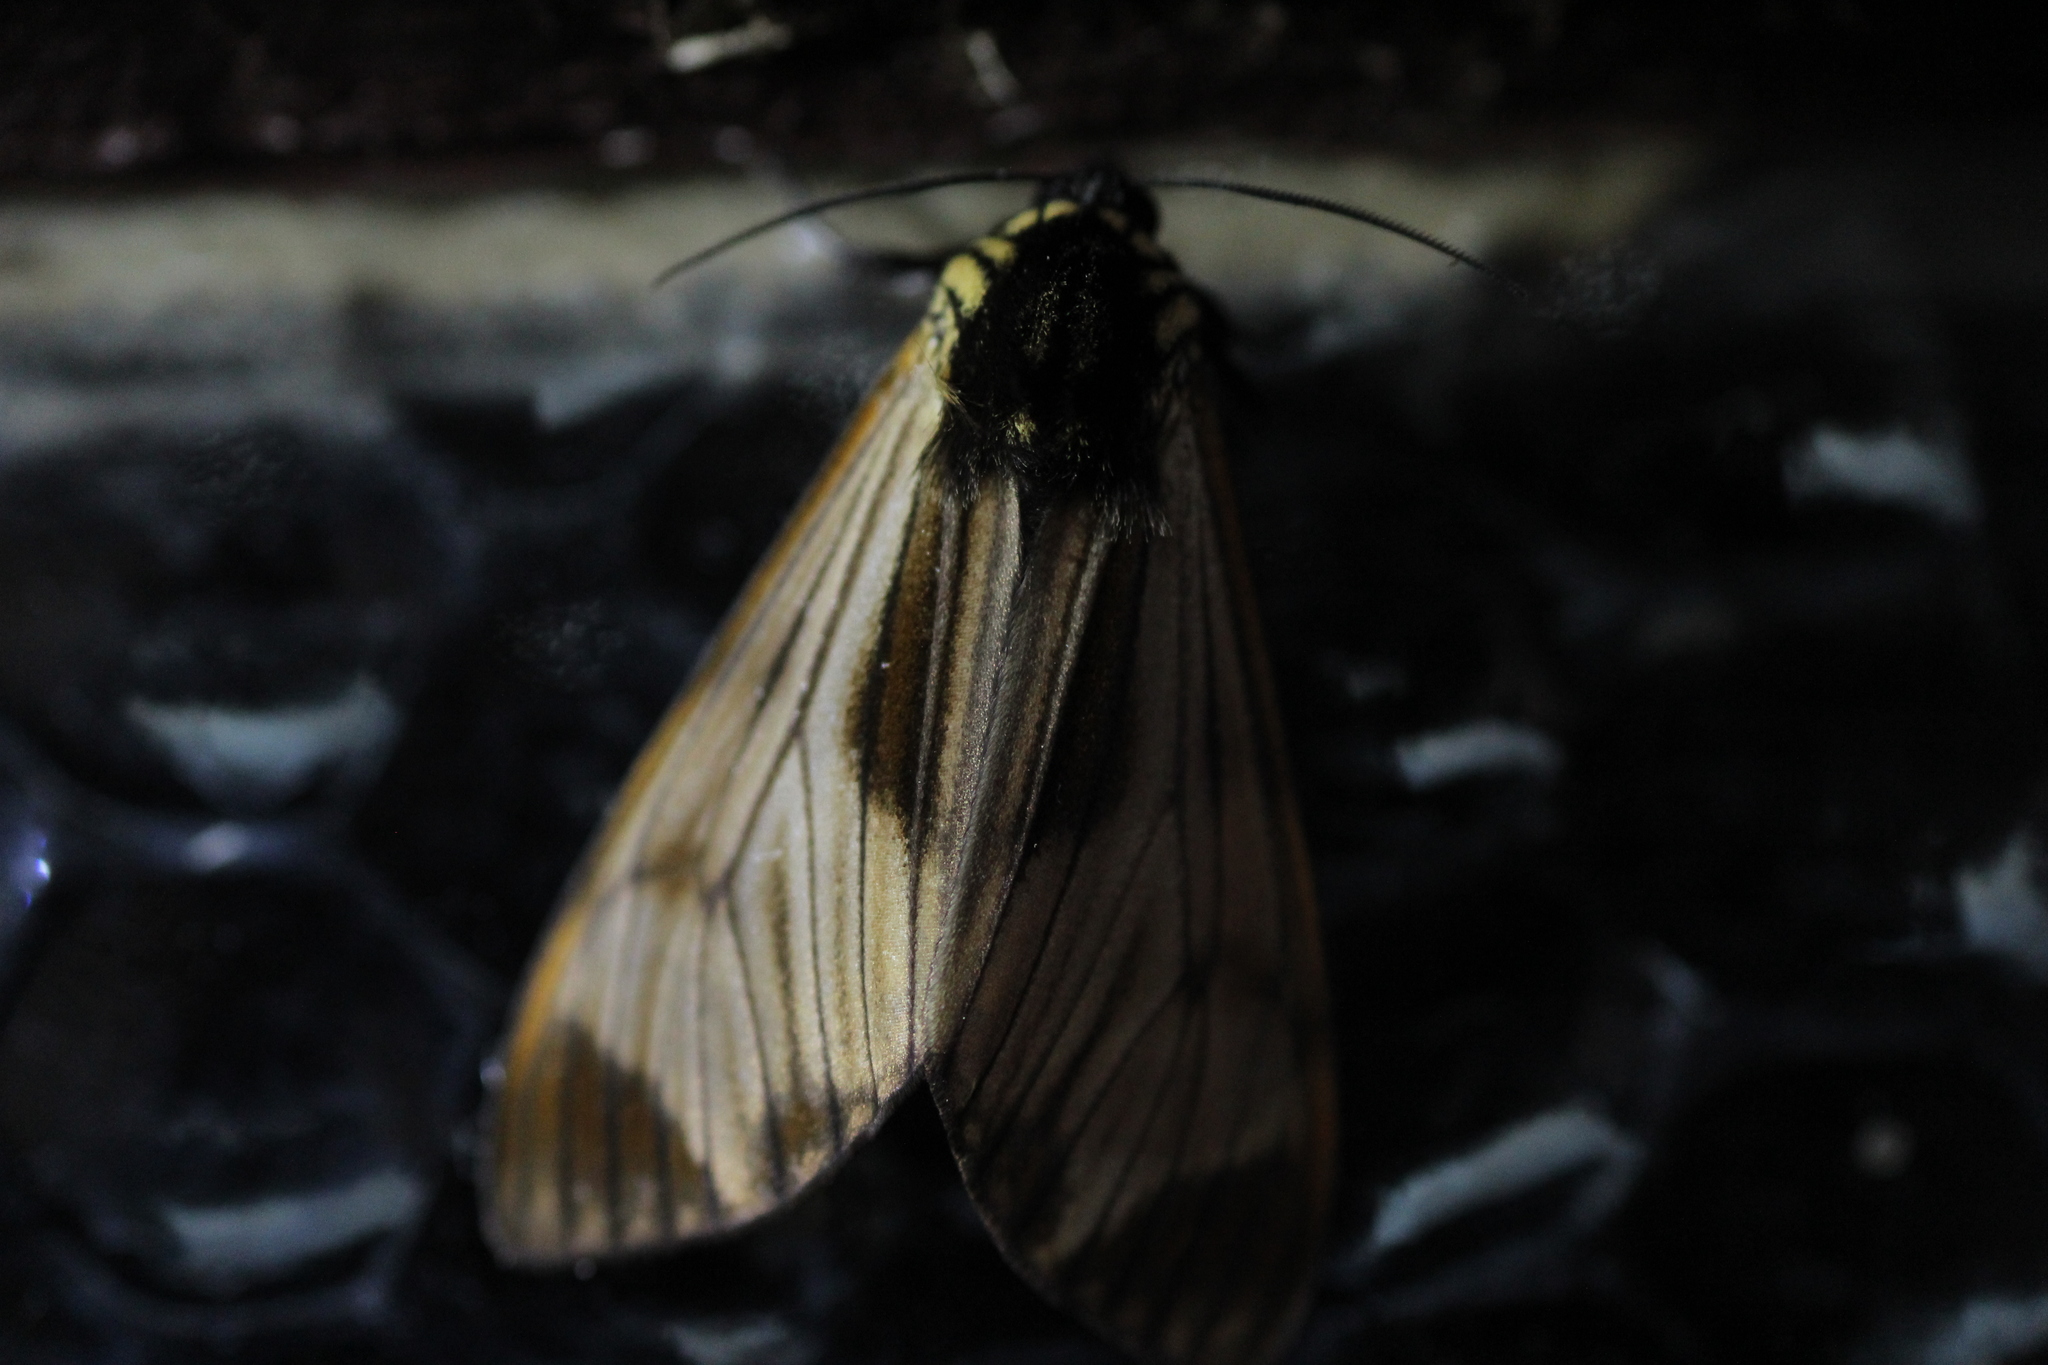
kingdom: Animalia
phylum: Arthropoda
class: Insecta
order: Lepidoptera
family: Erebidae
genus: Dysschema
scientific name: Dysschema neda
